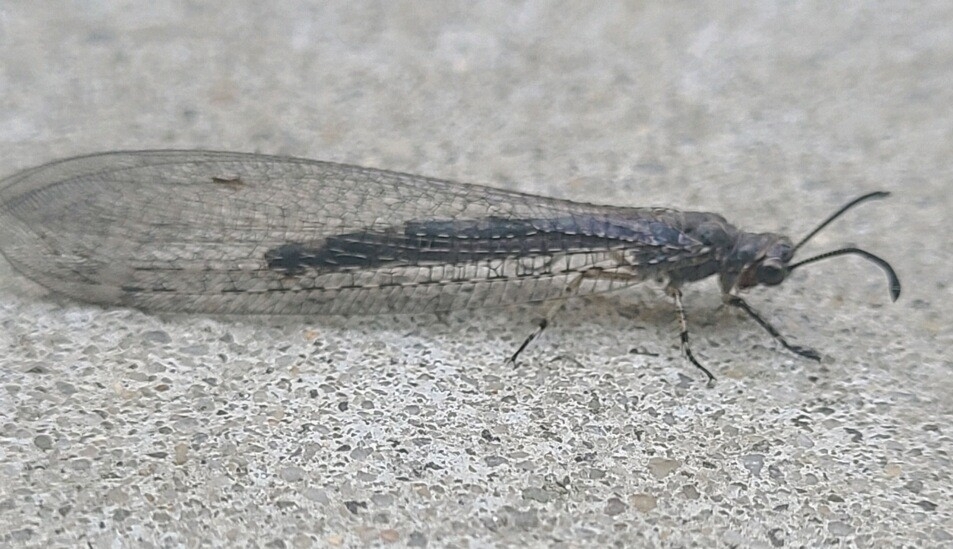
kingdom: Animalia
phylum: Arthropoda
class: Insecta
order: Neuroptera
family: Myrmeleontidae
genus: Myrmeleon
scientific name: Myrmeleon immaculatus
